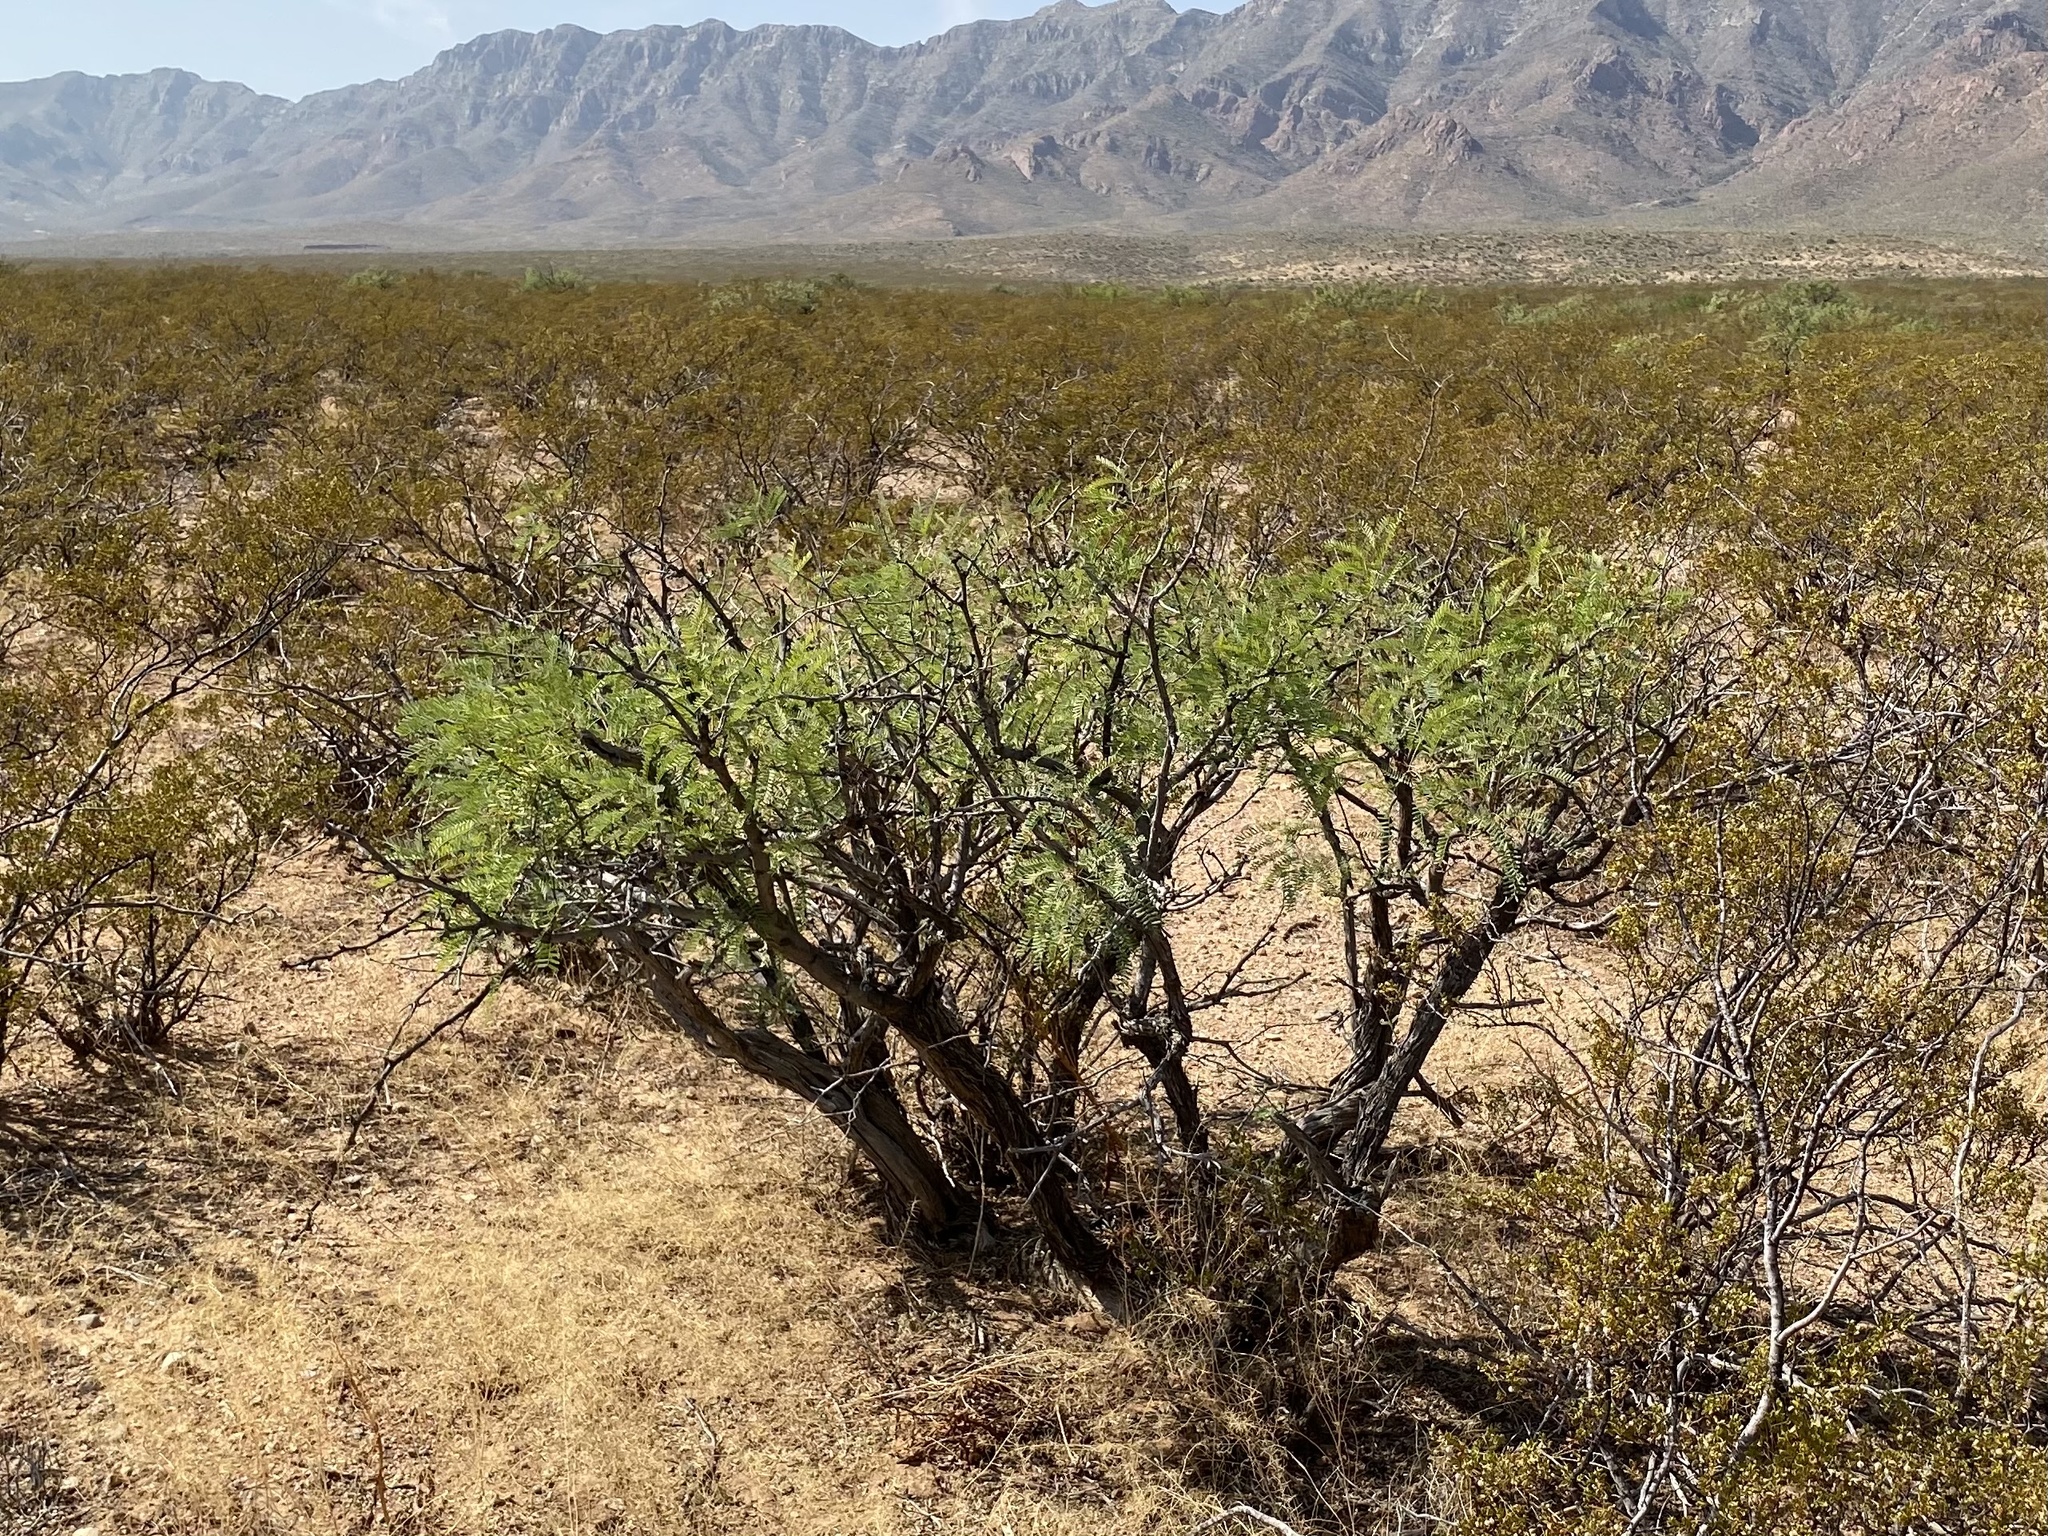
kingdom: Plantae
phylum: Tracheophyta
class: Magnoliopsida
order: Fabales
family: Fabaceae
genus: Prosopis
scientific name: Prosopis glandulosa
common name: Honey mesquite
